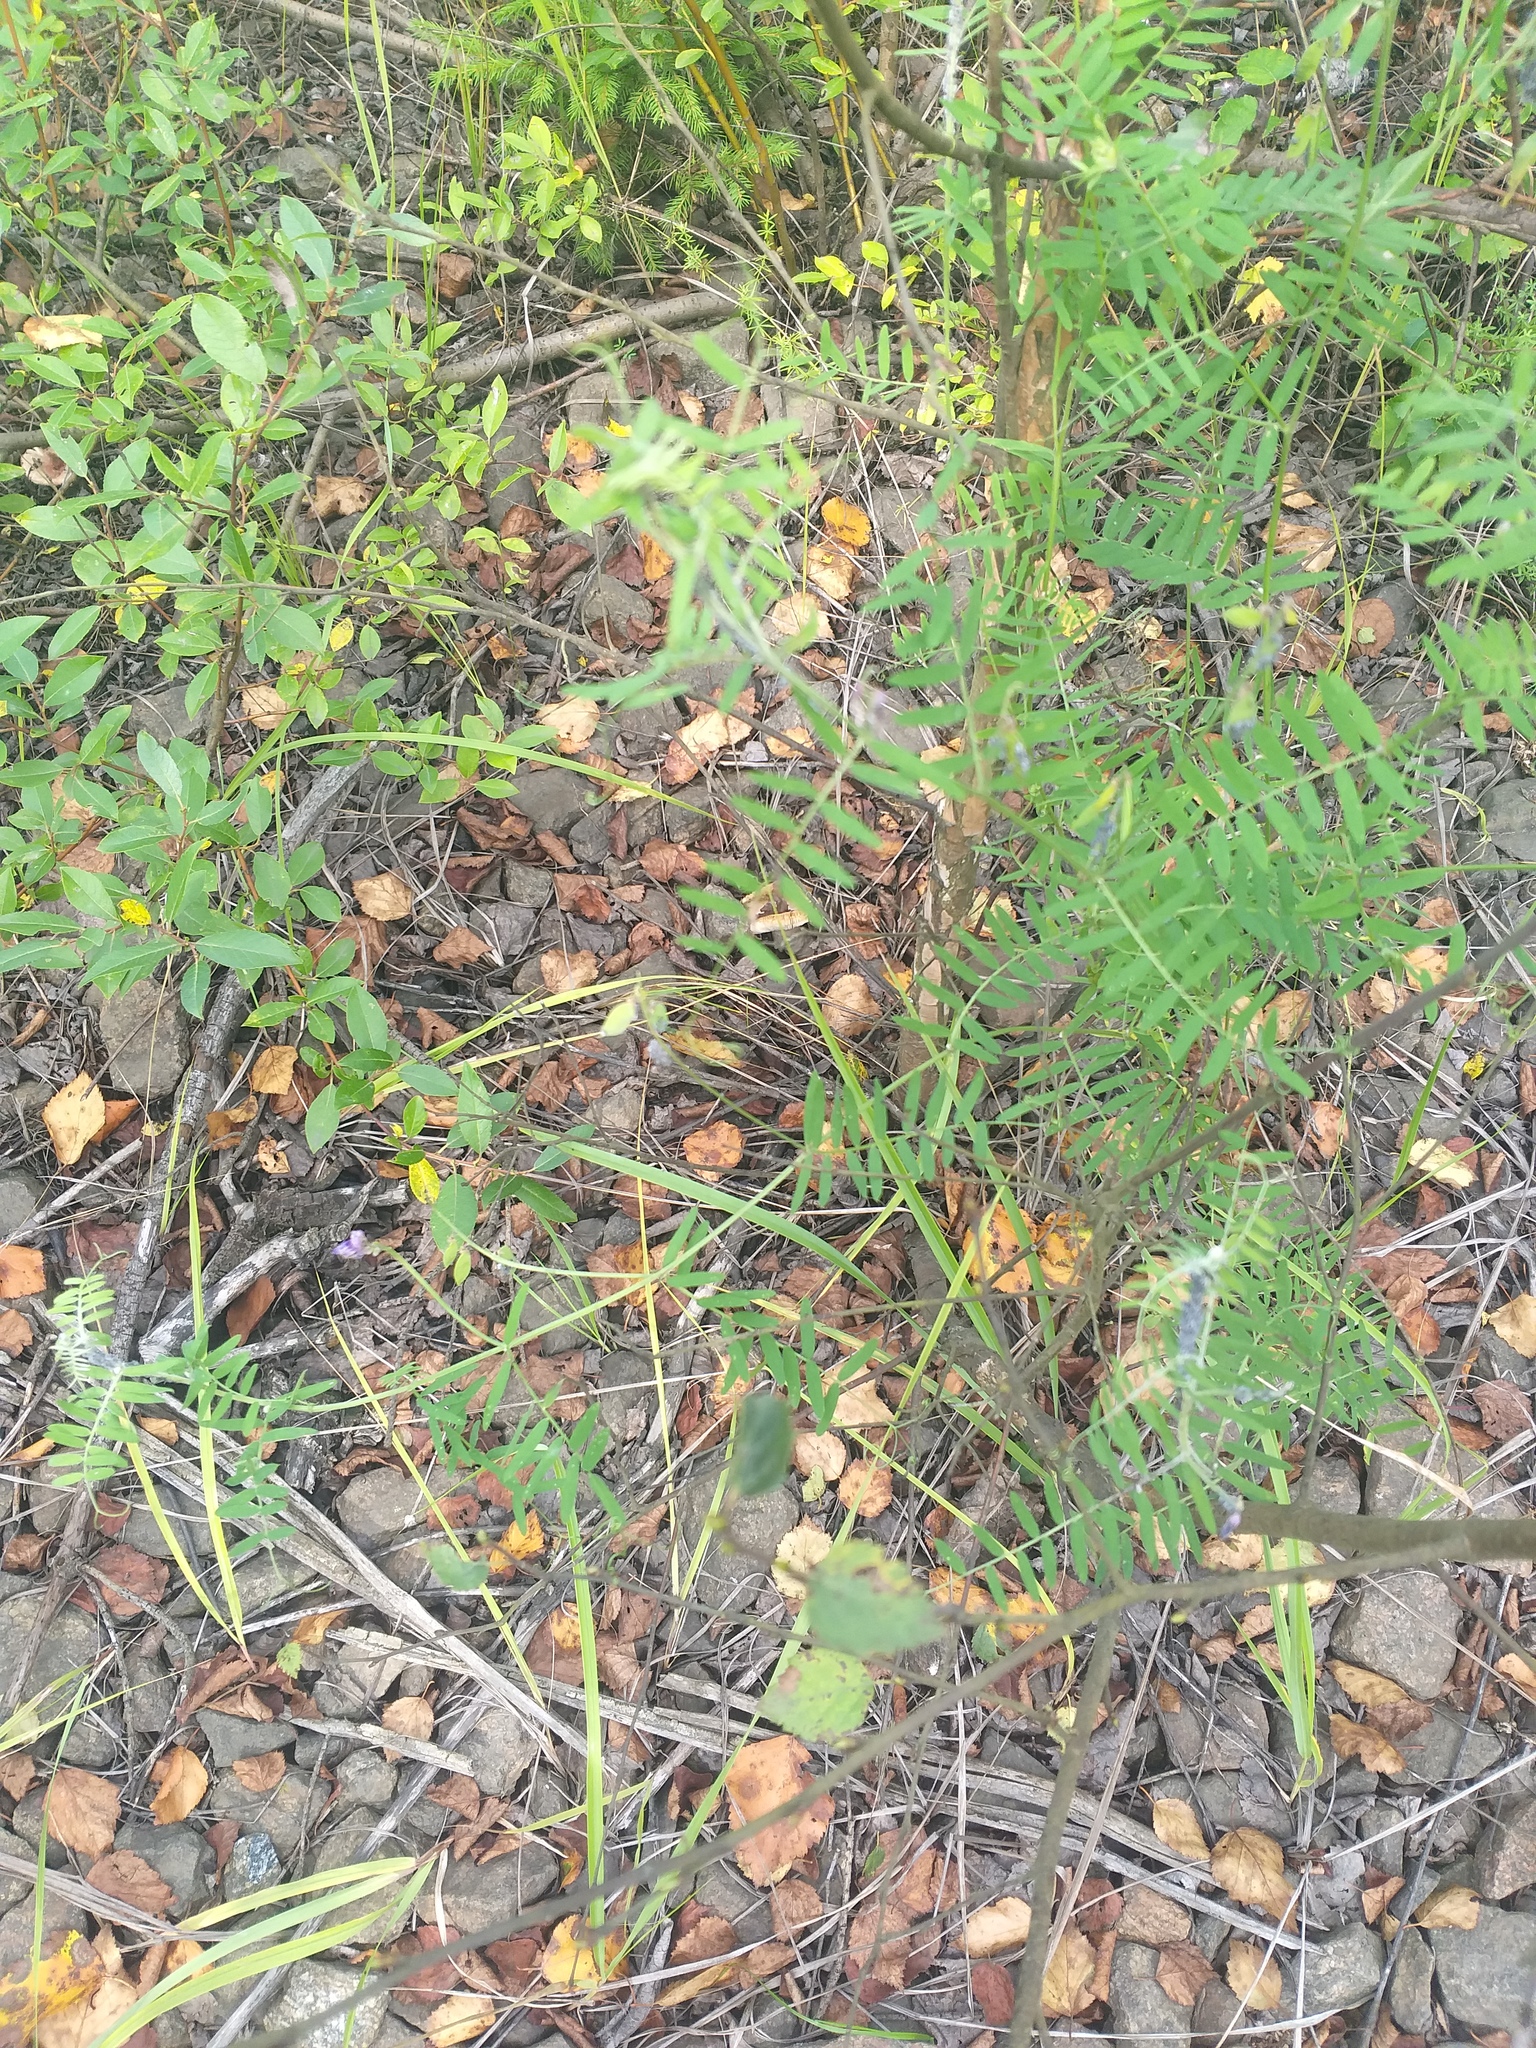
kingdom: Plantae
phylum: Tracheophyta
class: Magnoliopsida
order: Fabales
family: Fabaceae
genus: Vicia
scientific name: Vicia cracca
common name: Bird vetch
